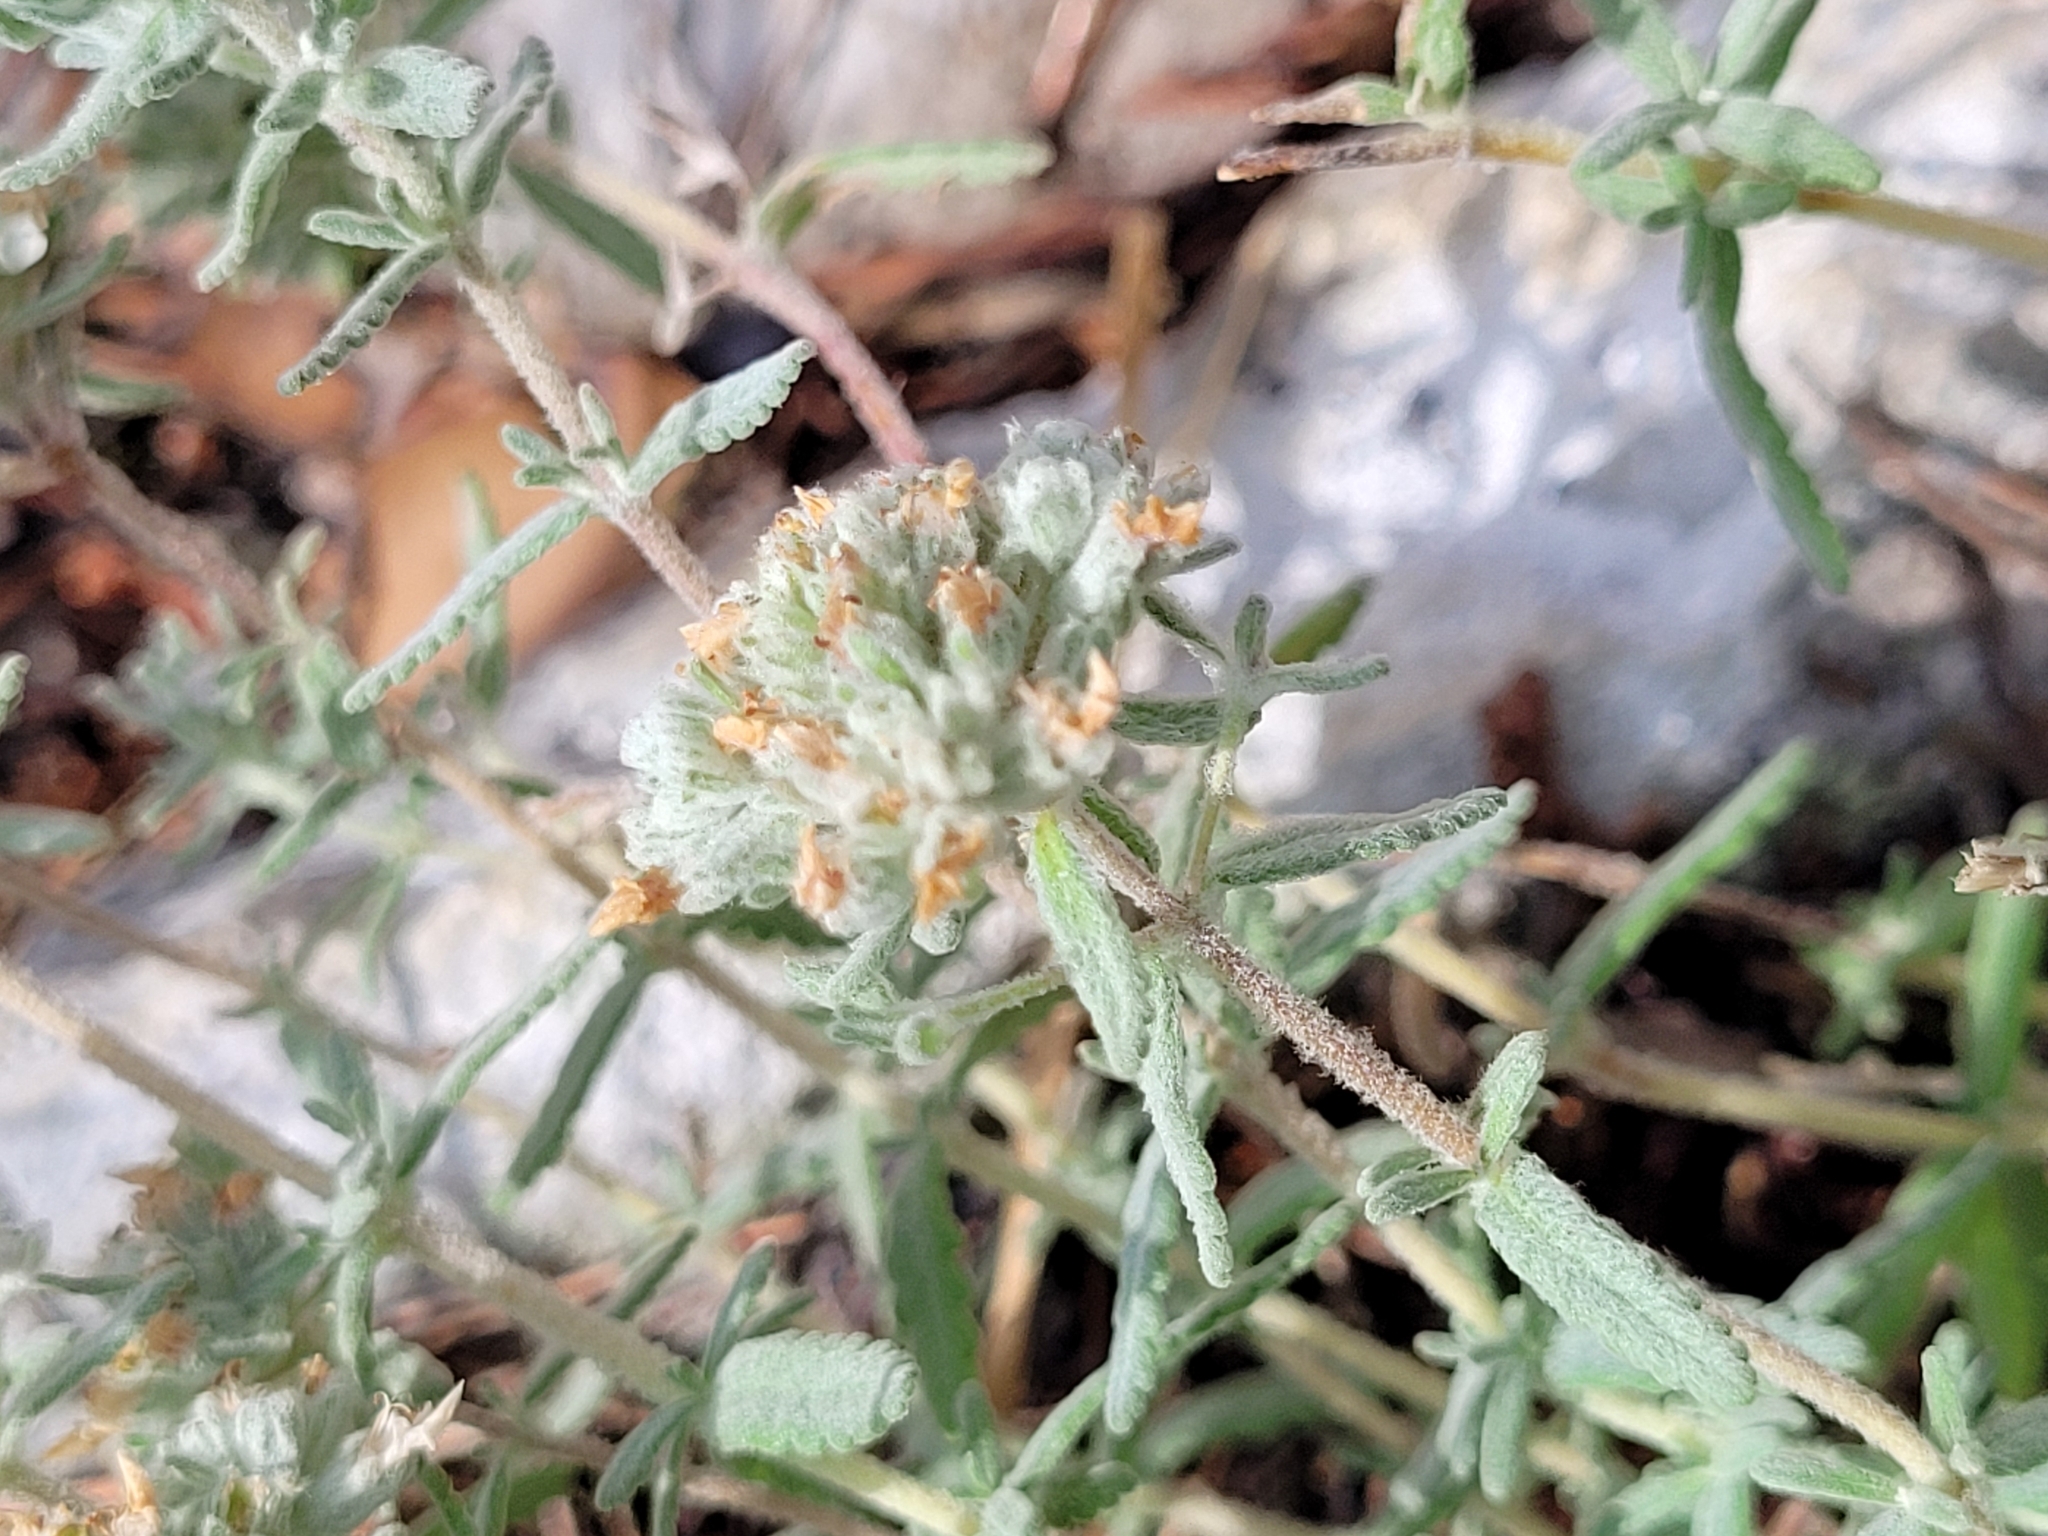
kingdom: Plantae
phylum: Tracheophyta
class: Magnoliopsida
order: Lamiales
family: Lamiaceae
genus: Teucrium
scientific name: Teucrium capitatum
